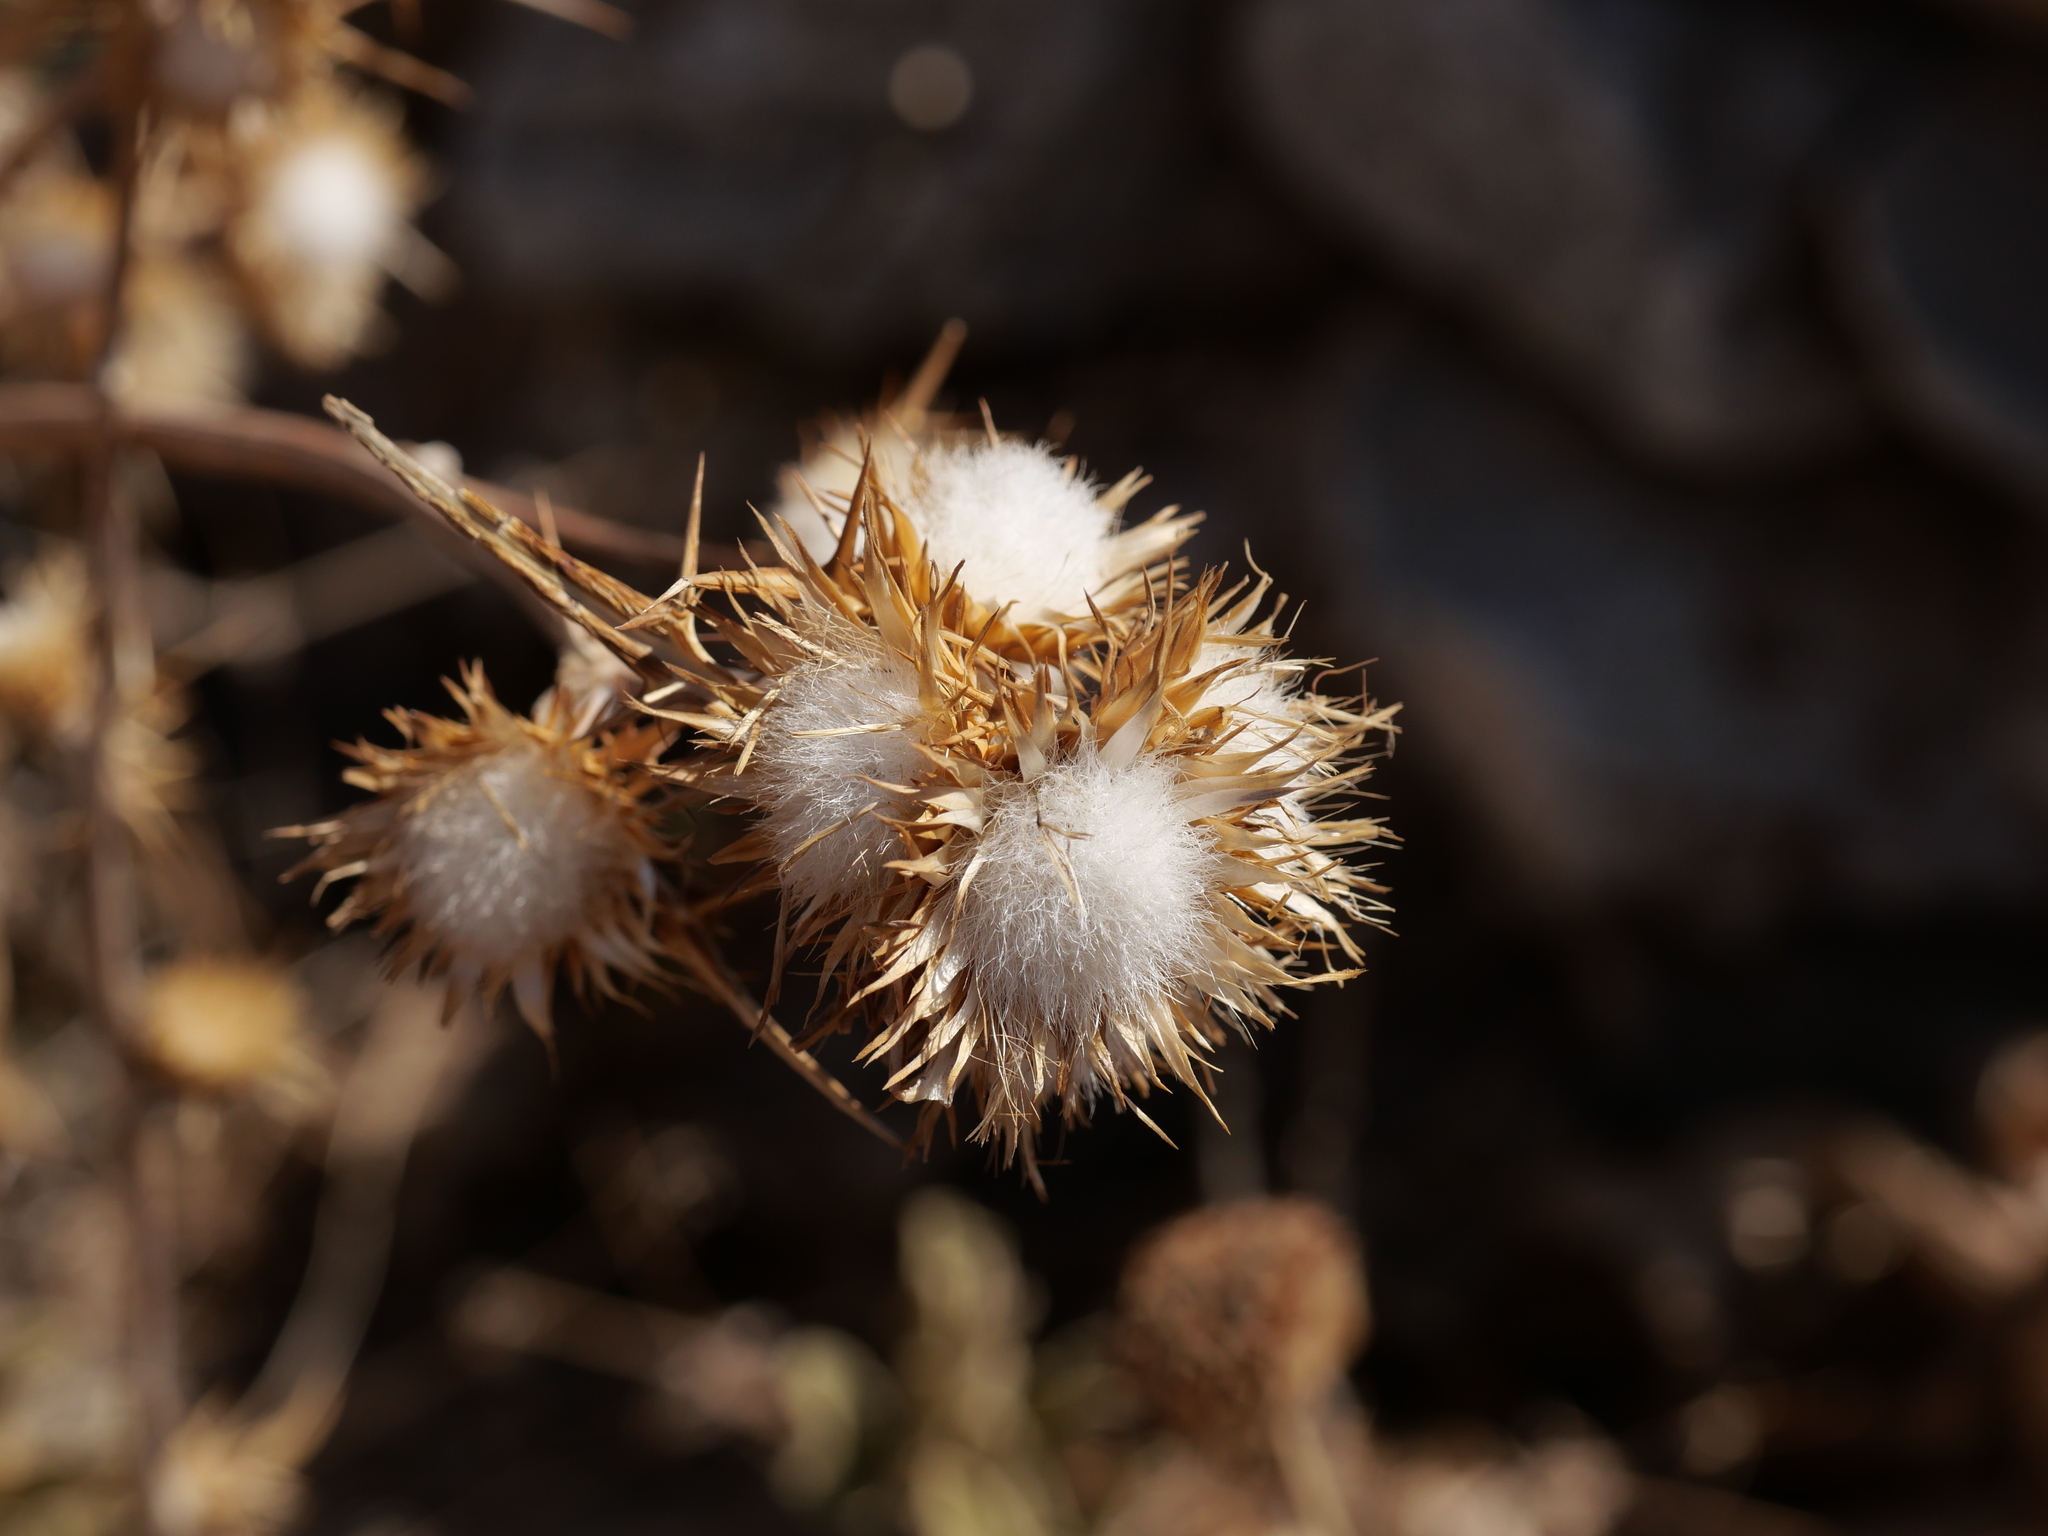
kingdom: Plantae
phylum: Tracheophyta
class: Magnoliopsida
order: Asterales
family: Asteraceae
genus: Notobasis
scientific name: Notobasis syriaca
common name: Syrian thistle
